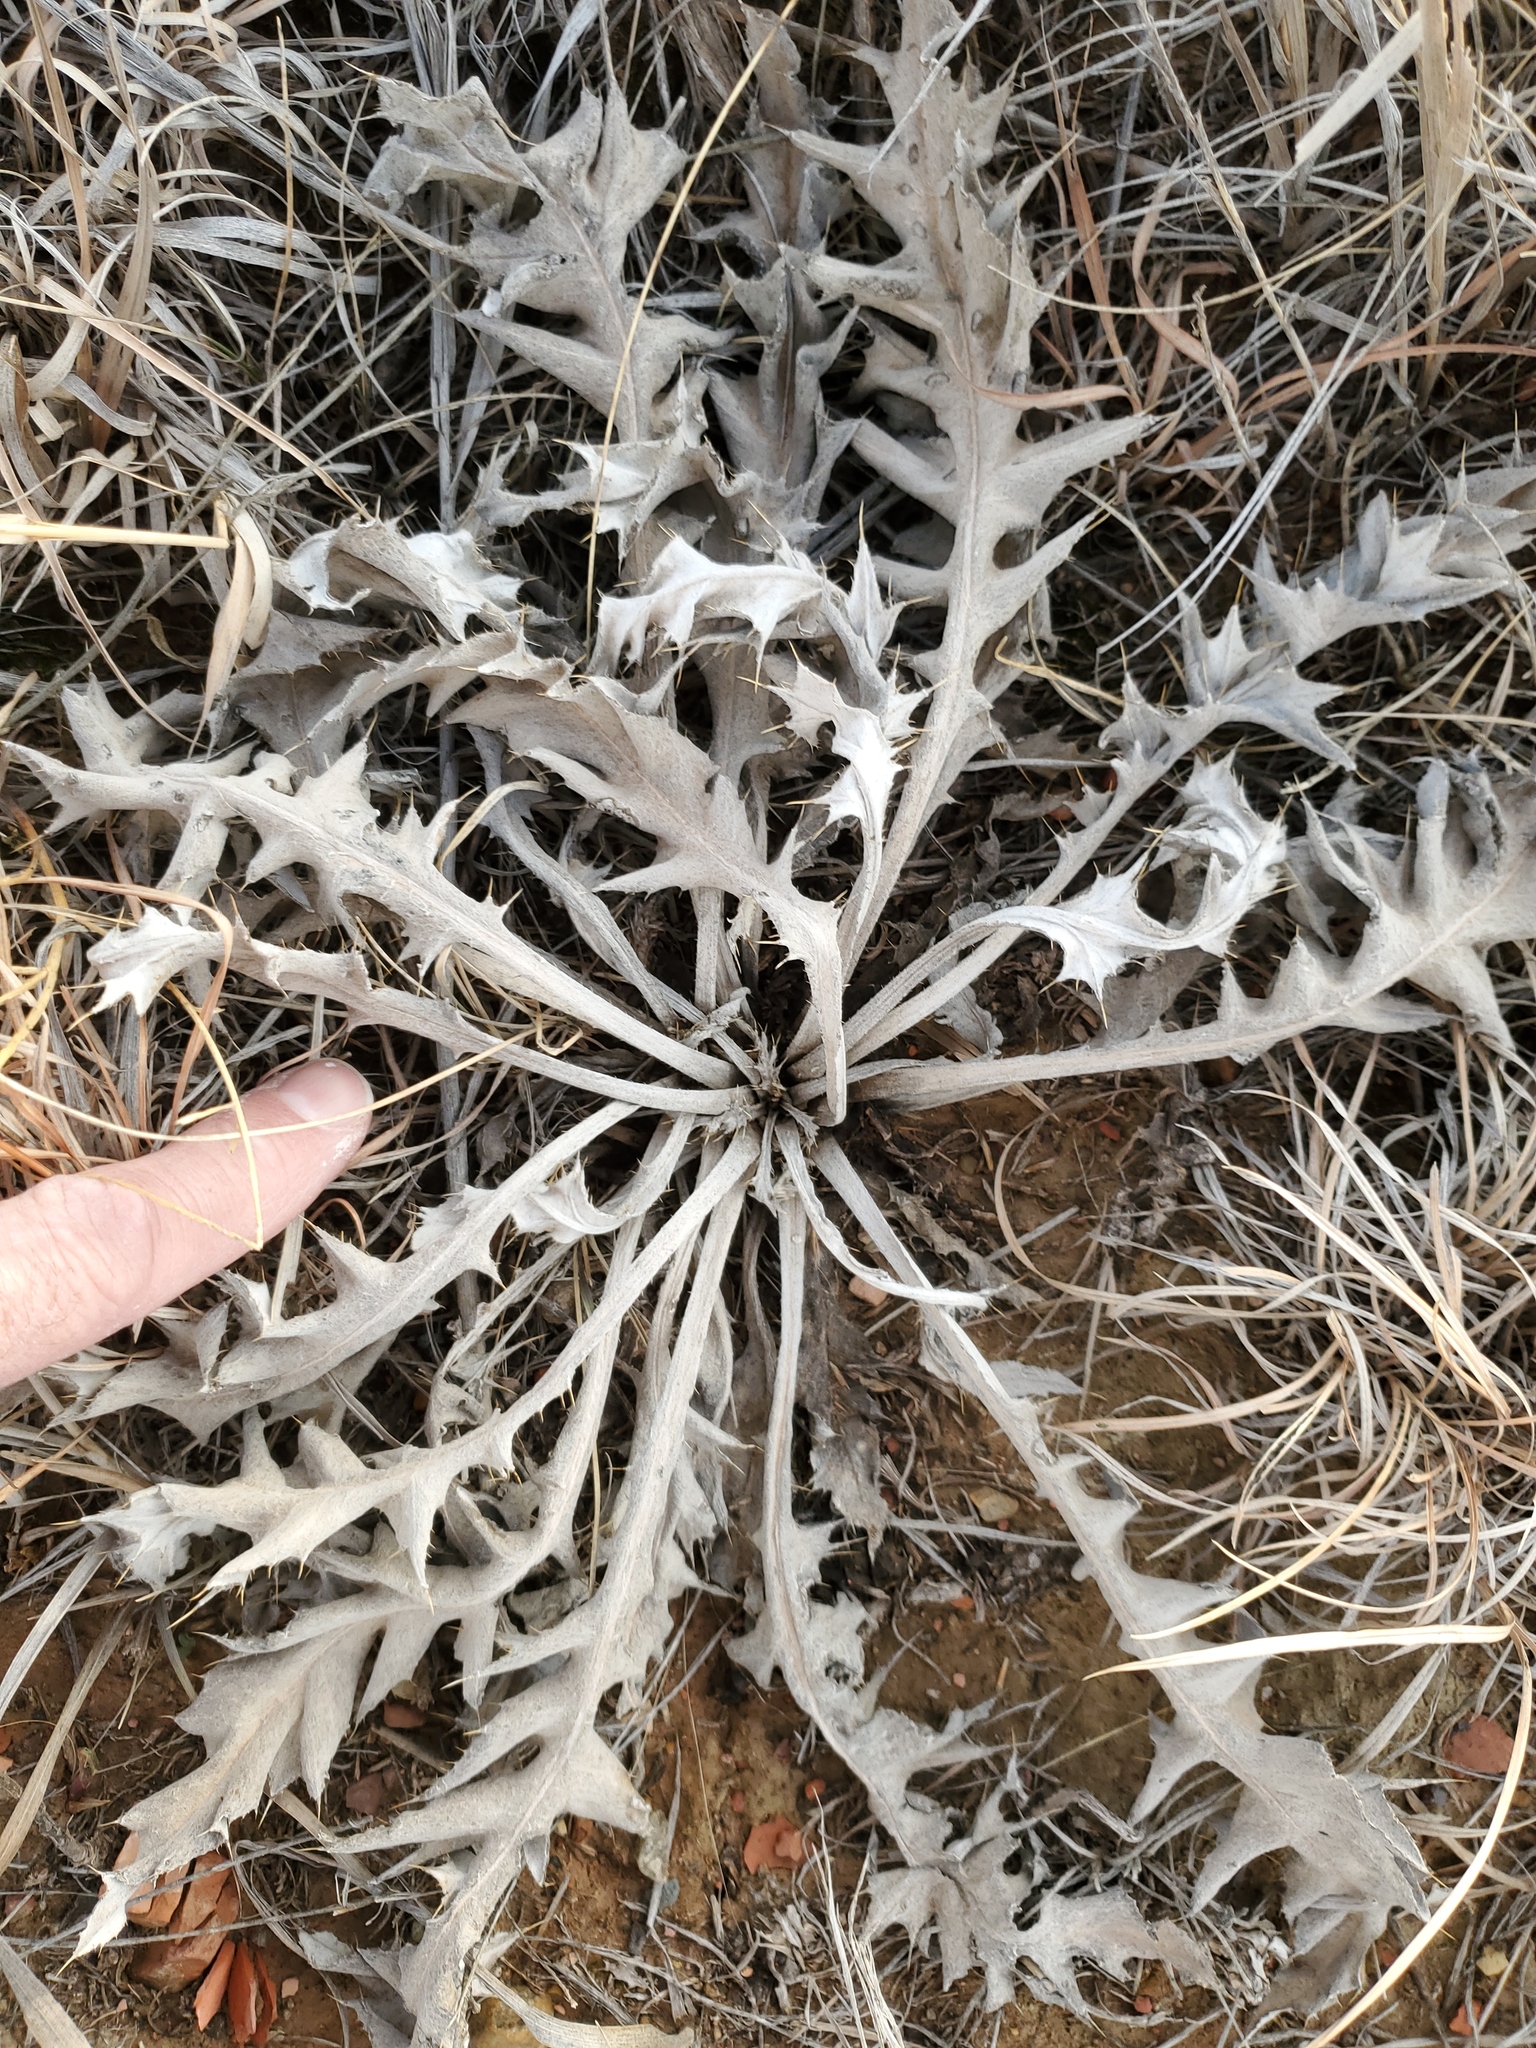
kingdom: Plantae
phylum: Tracheophyta
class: Magnoliopsida
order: Asterales
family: Asteraceae
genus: Cirsium
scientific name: Cirsium undulatum
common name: Pasture thistle
